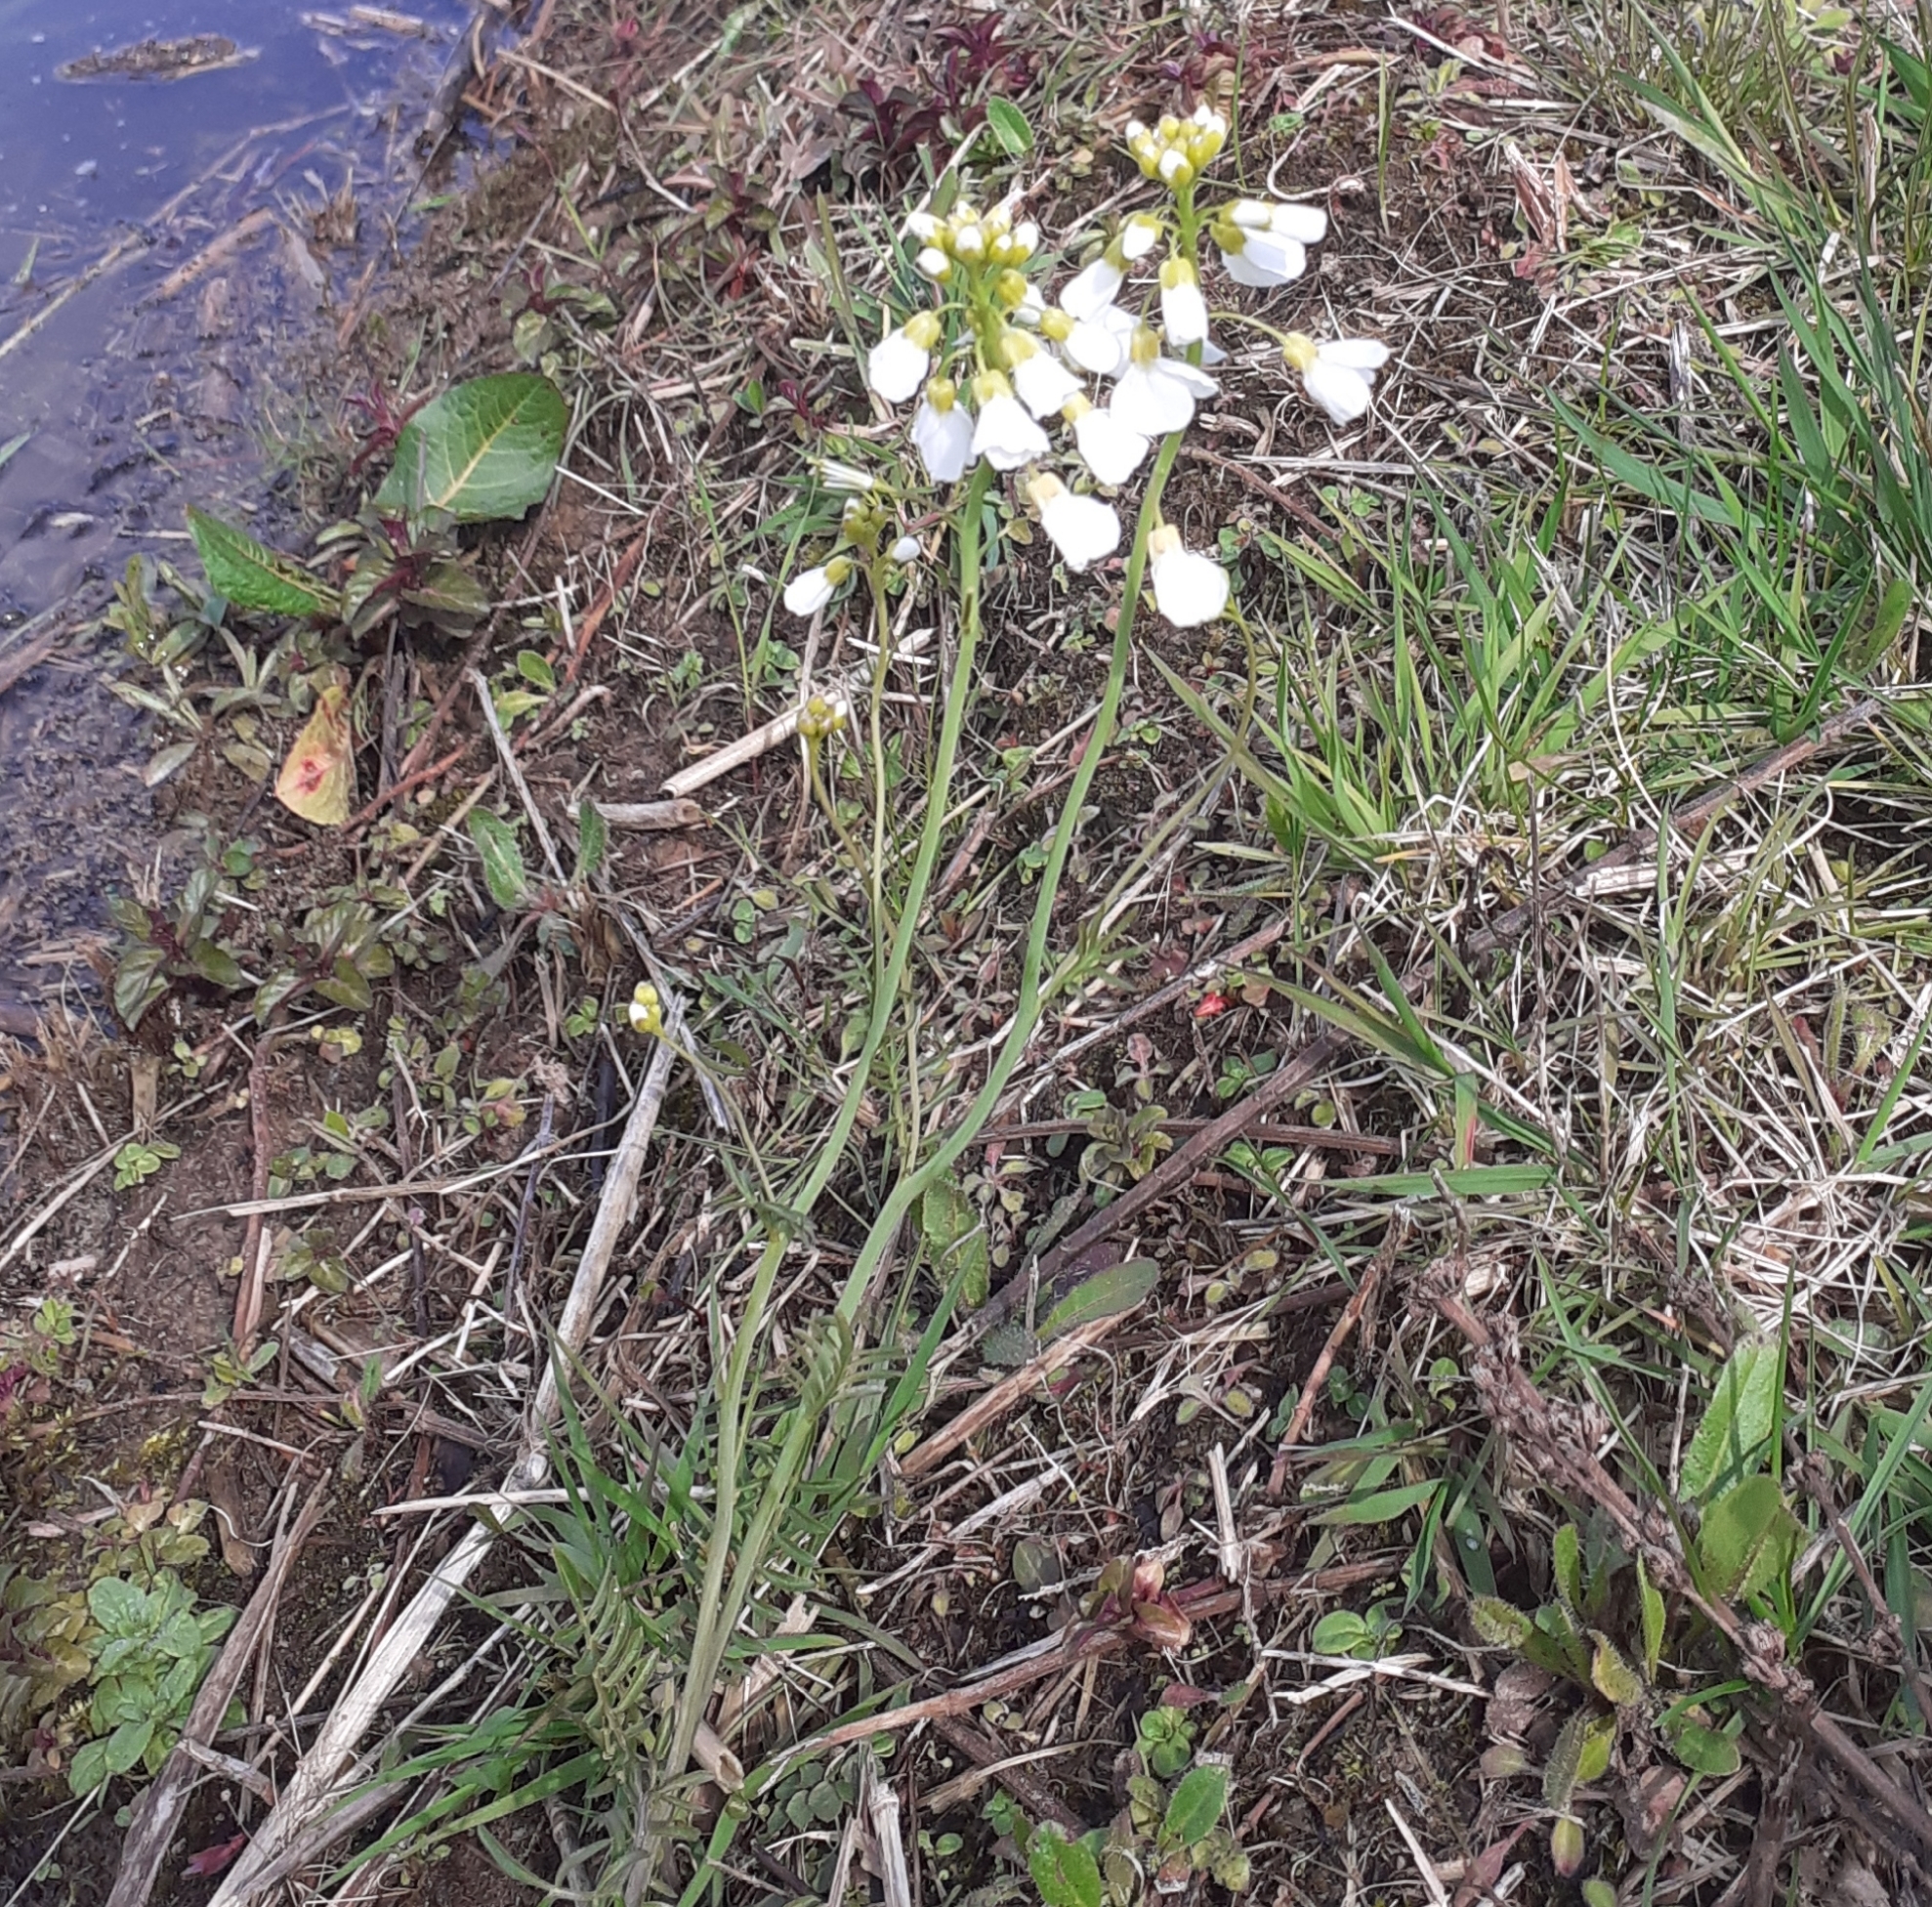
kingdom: Plantae
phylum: Tracheophyta
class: Magnoliopsida
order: Brassicales
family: Brassicaceae
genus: Cardamine
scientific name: Cardamine pratensis
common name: Cuckoo flower
